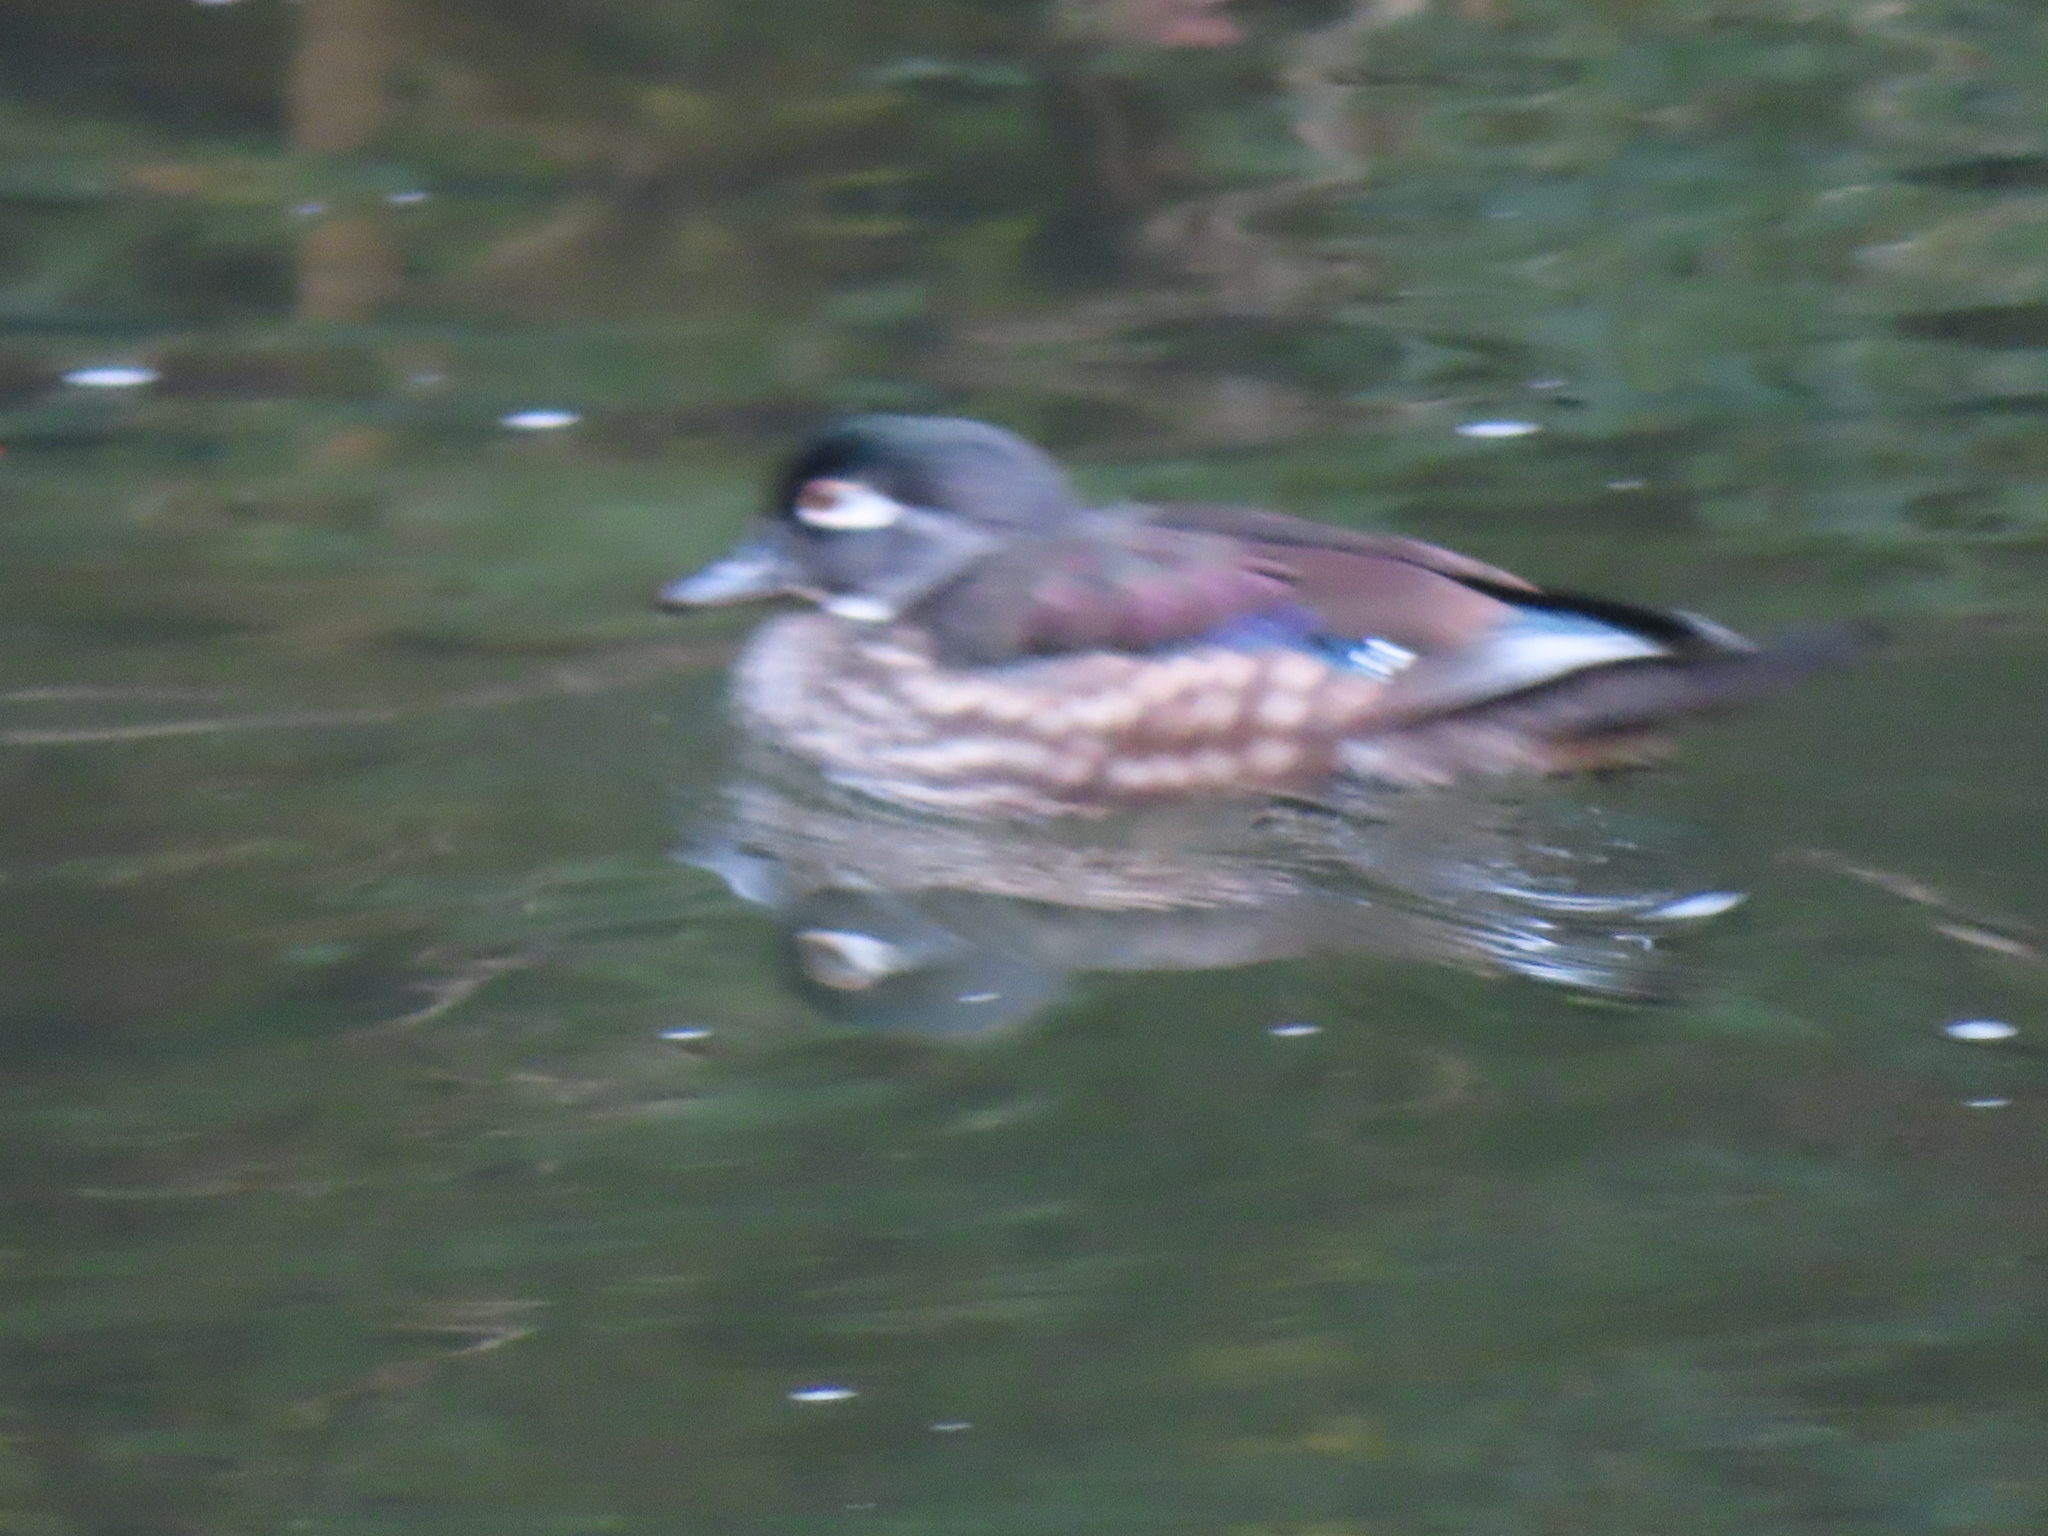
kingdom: Animalia
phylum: Chordata
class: Aves
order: Anseriformes
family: Anatidae
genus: Aix
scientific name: Aix sponsa
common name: Wood duck
